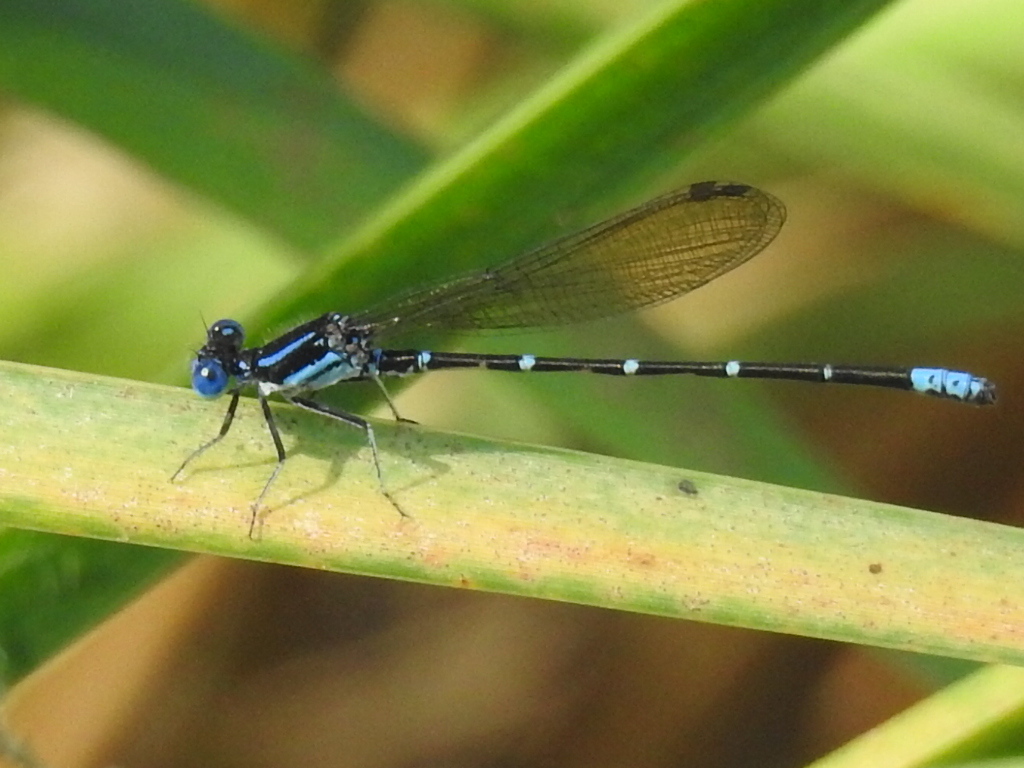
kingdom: Animalia
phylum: Arthropoda
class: Insecta
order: Odonata
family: Coenagrionidae
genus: Argia
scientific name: Argia sedula
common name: Blue-ringed dancer
